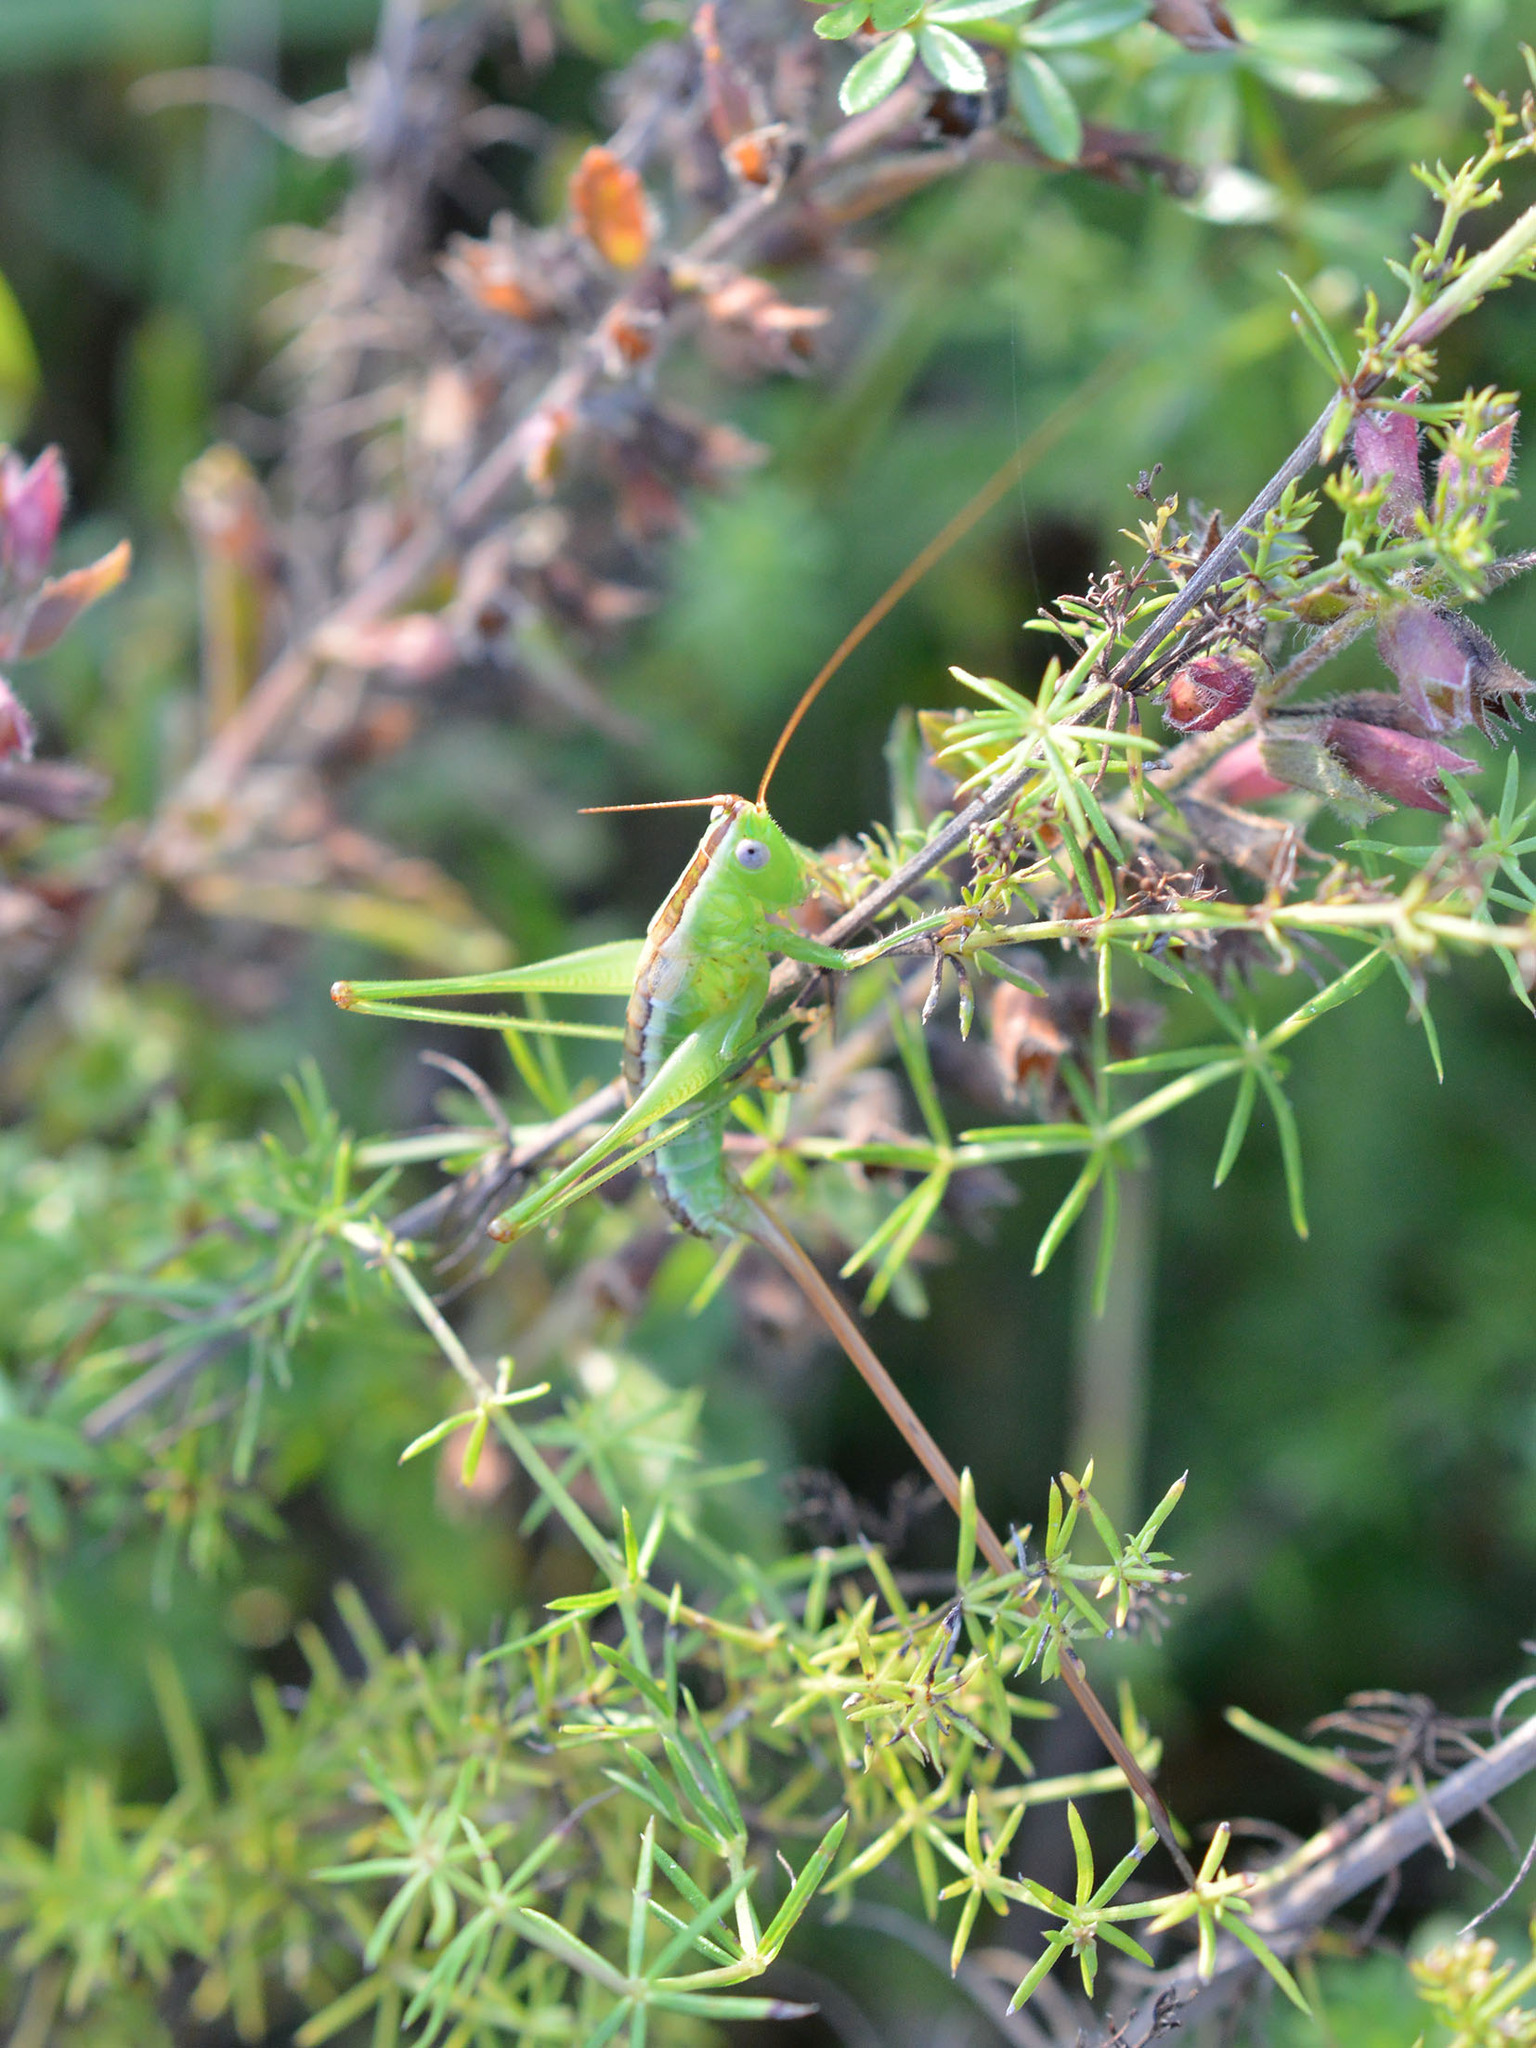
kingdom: Animalia
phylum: Arthropoda
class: Insecta
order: Orthoptera
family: Tettigoniidae
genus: Conocephalus
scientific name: Conocephalus hastatus
